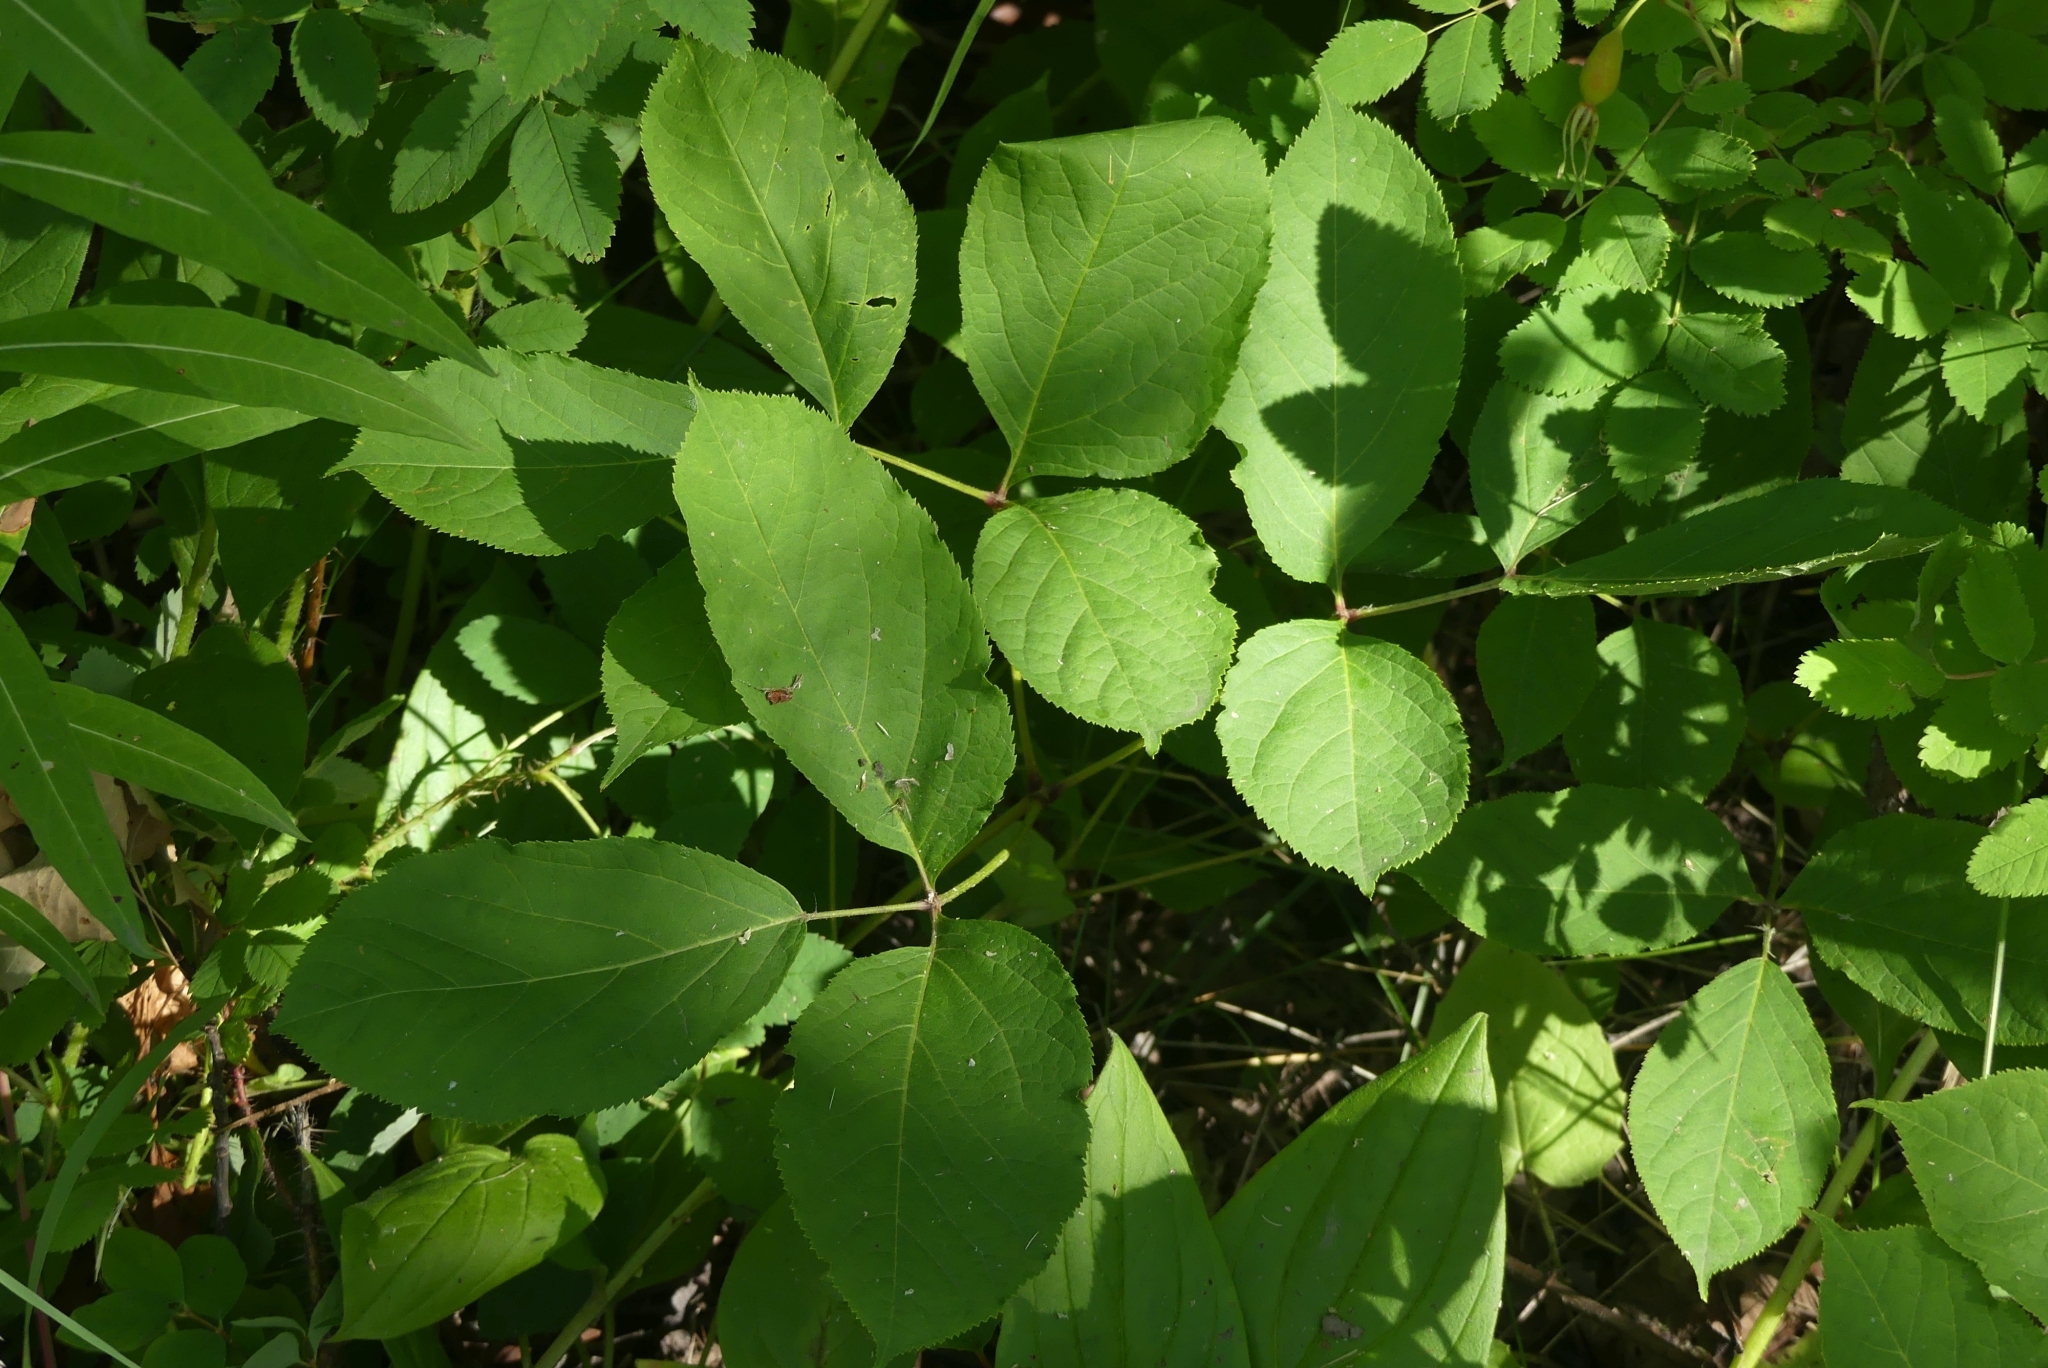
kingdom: Plantae
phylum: Tracheophyta
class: Magnoliopsida
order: Apiales
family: Araliaceae
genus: Aralia
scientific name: Aralia nudicaulis
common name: Wild sarsaparilla
